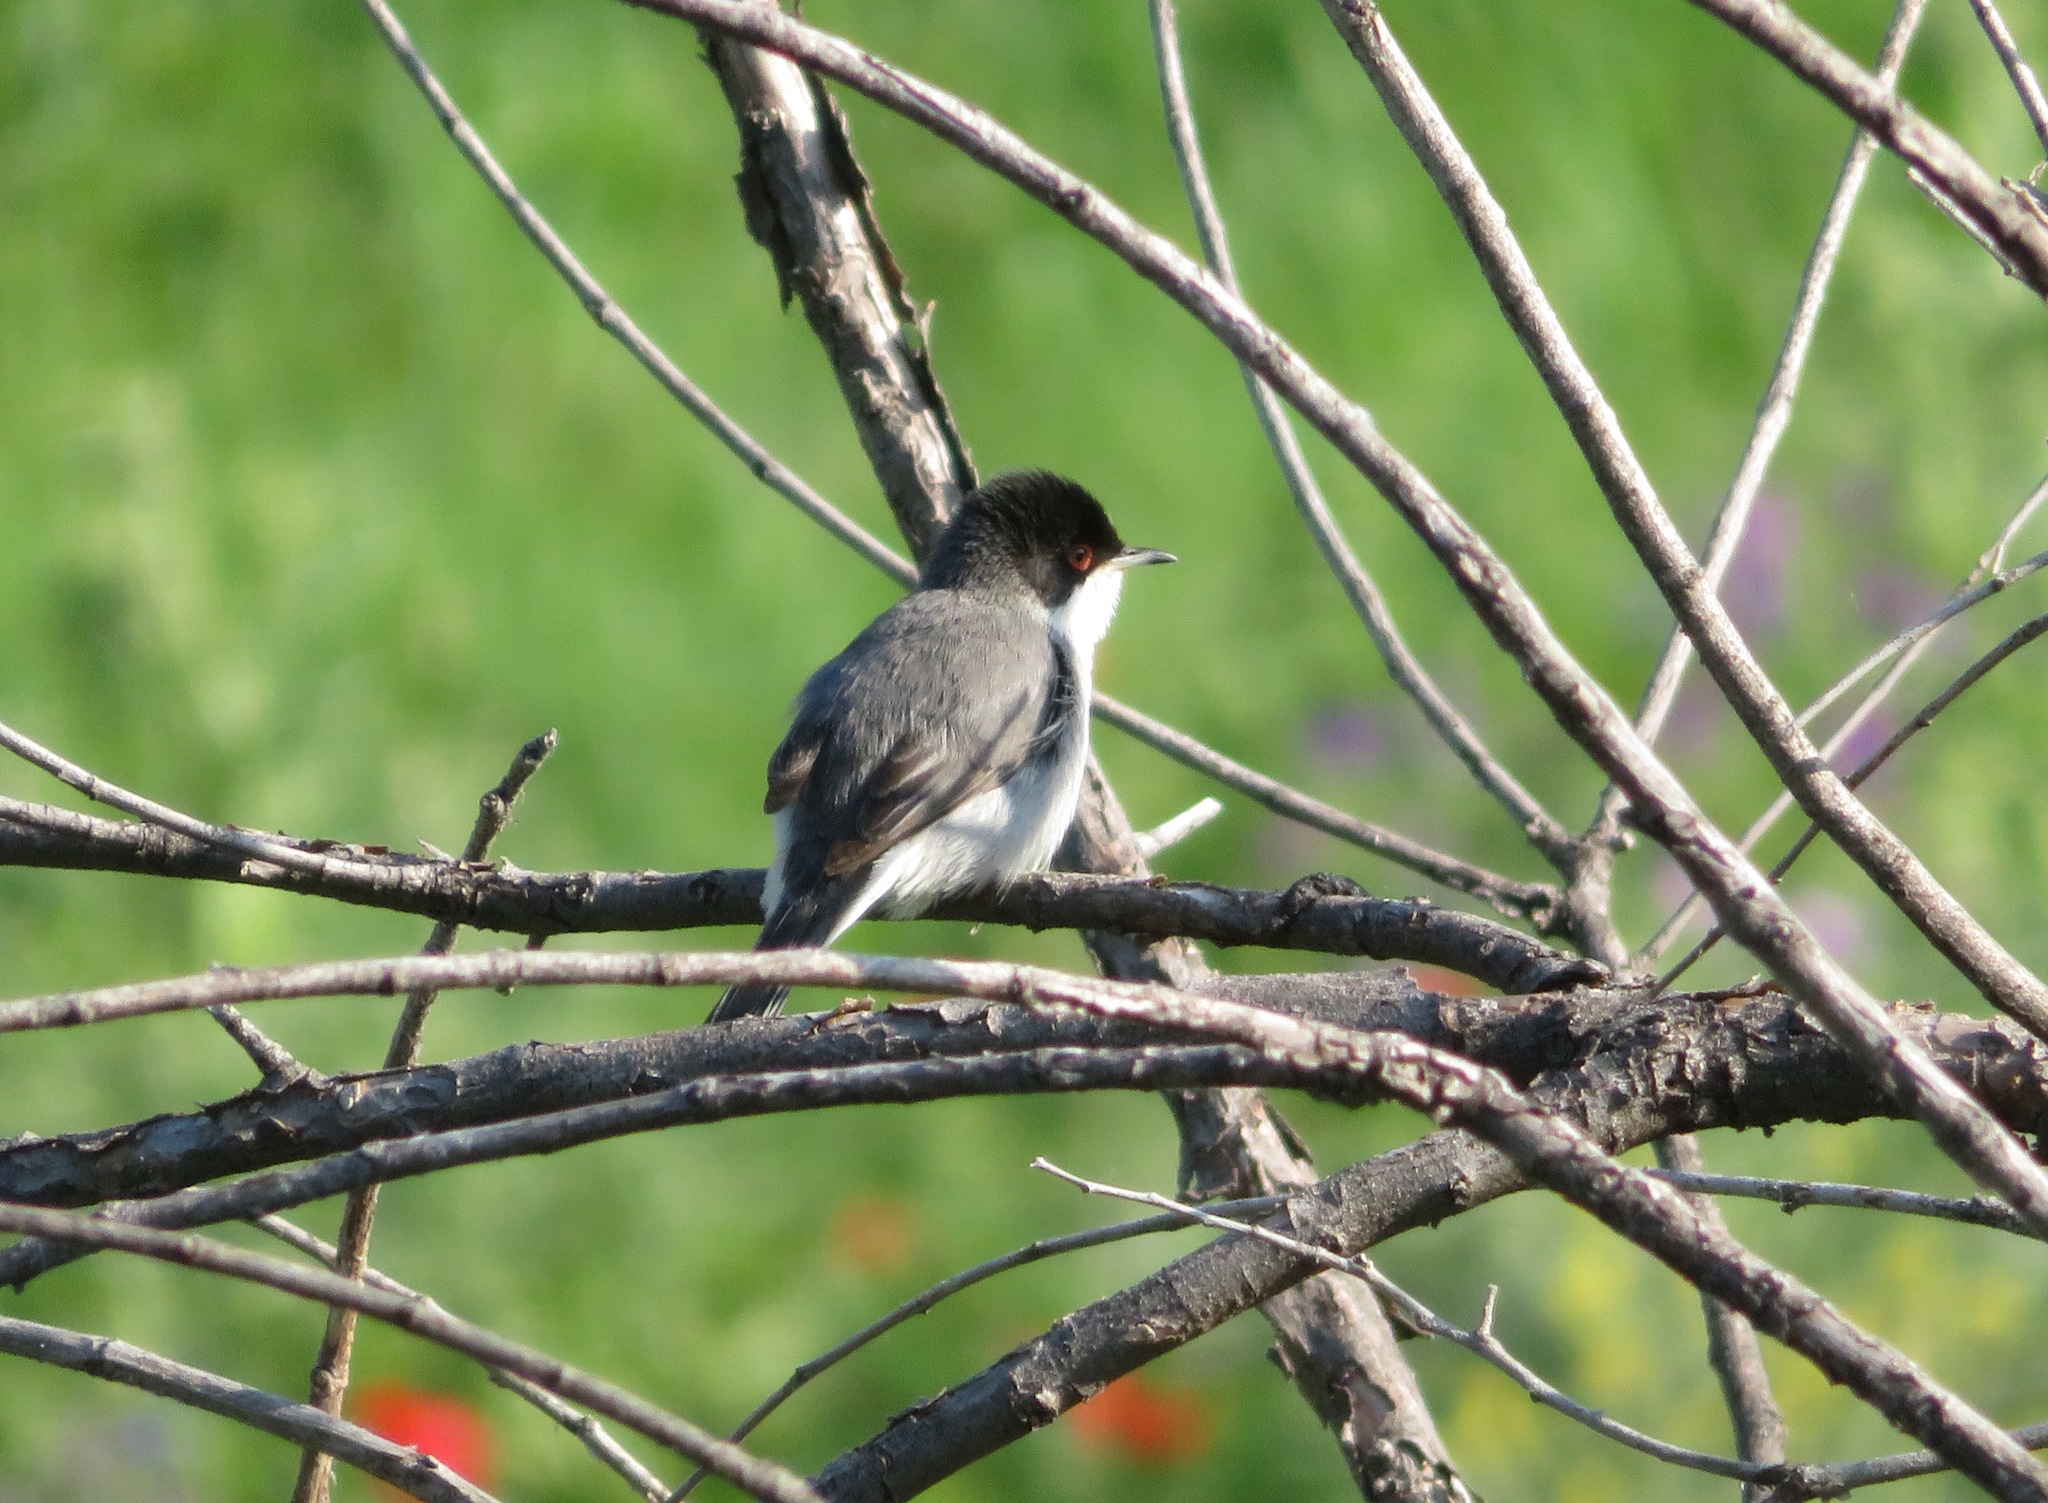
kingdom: Animalia
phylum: Chordata
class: Aves
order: Passeriformes
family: Sylviidae
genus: Curruca
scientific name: Curruca melanocephala
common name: Sardinian warbler
